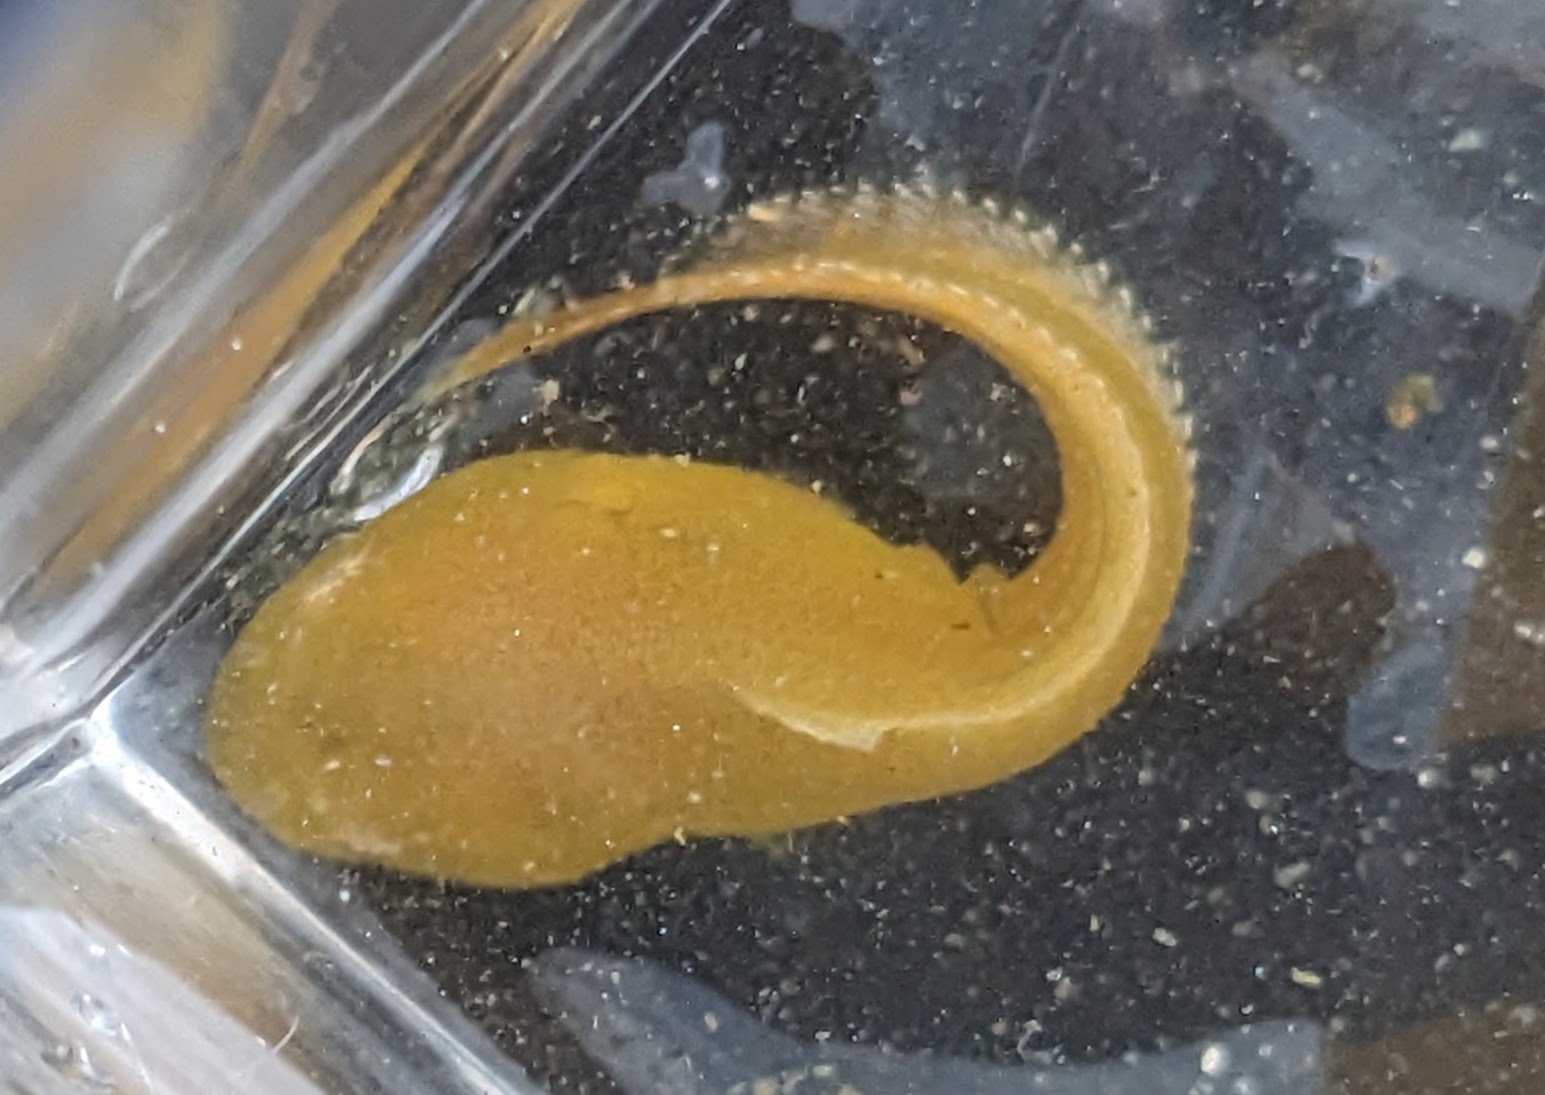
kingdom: Animalia
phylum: Chordata
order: Scorpaeniformes
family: Liparidae
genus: Liparis
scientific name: Liparis florae
